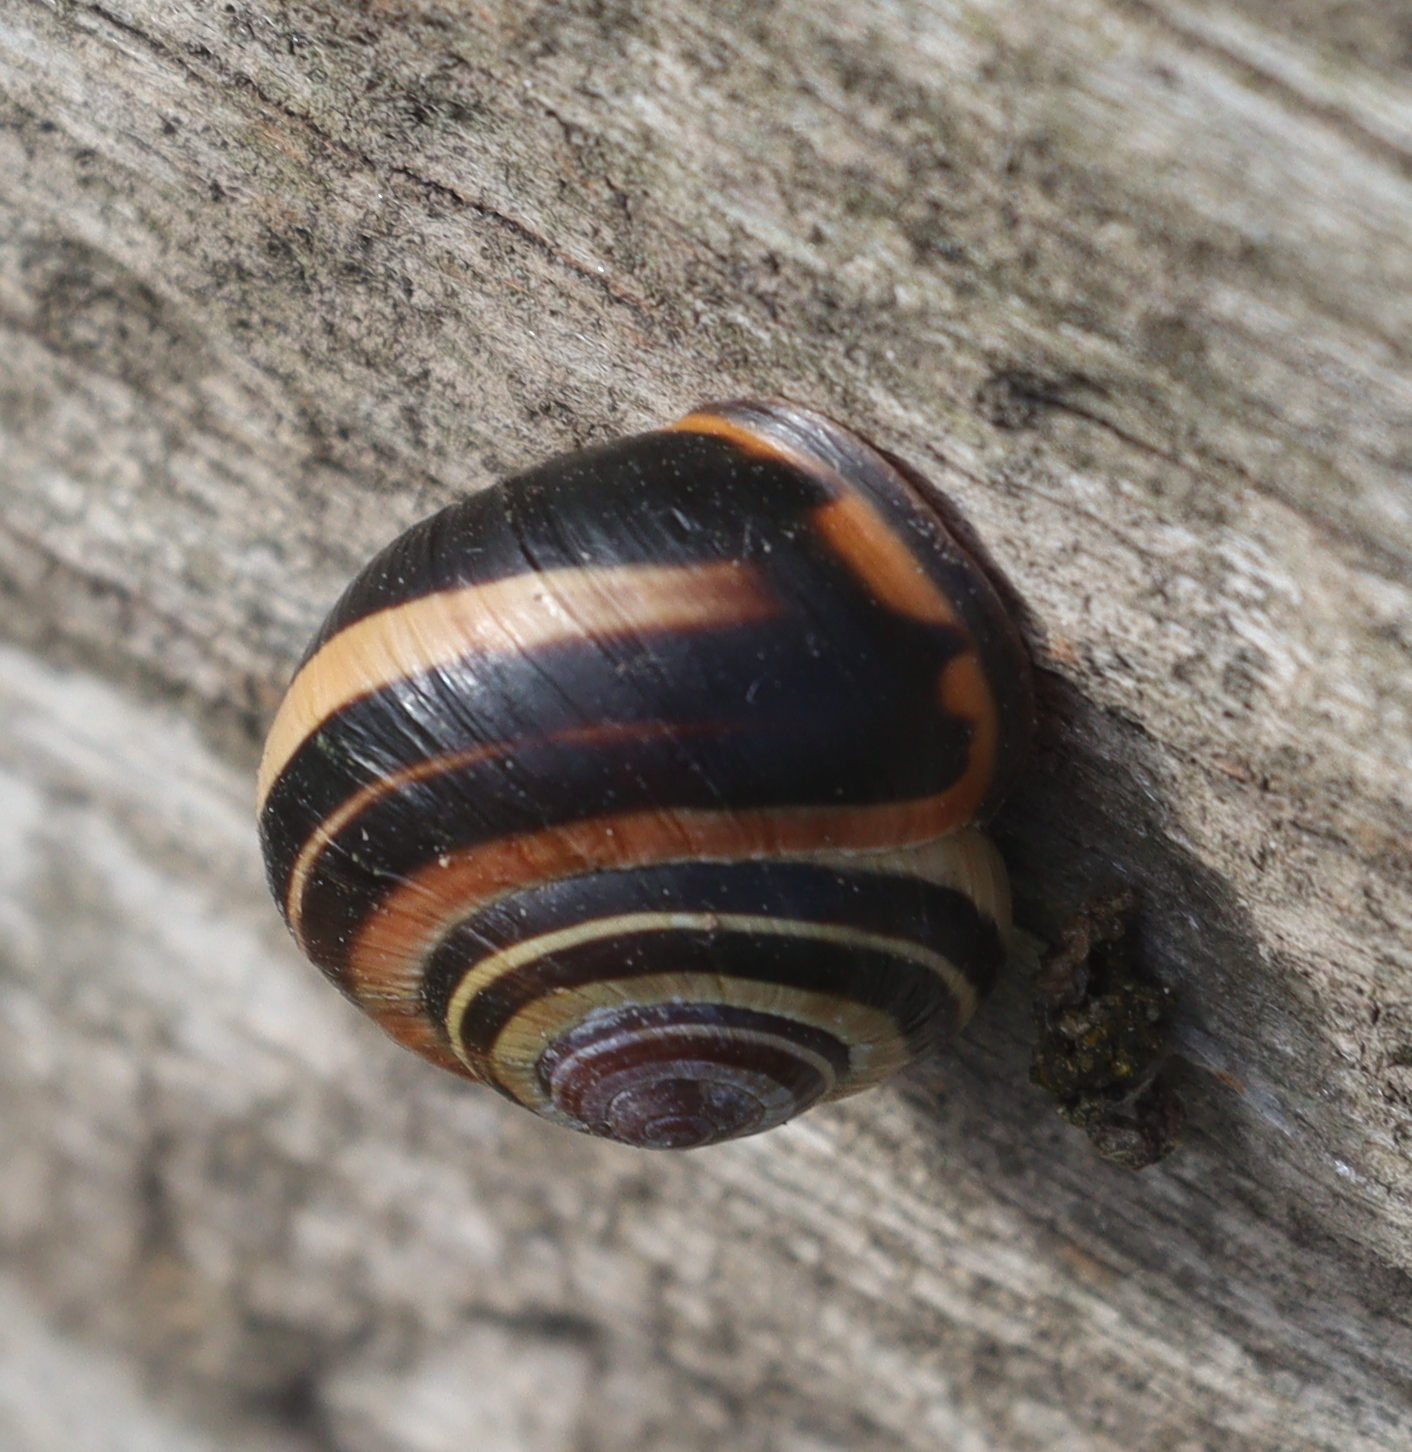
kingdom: Animalia
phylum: Mollusca
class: Gastropoda
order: Stylommatophora
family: Helicidae
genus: Cepaea
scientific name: Cepaea nemoralis
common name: Grovesnail
